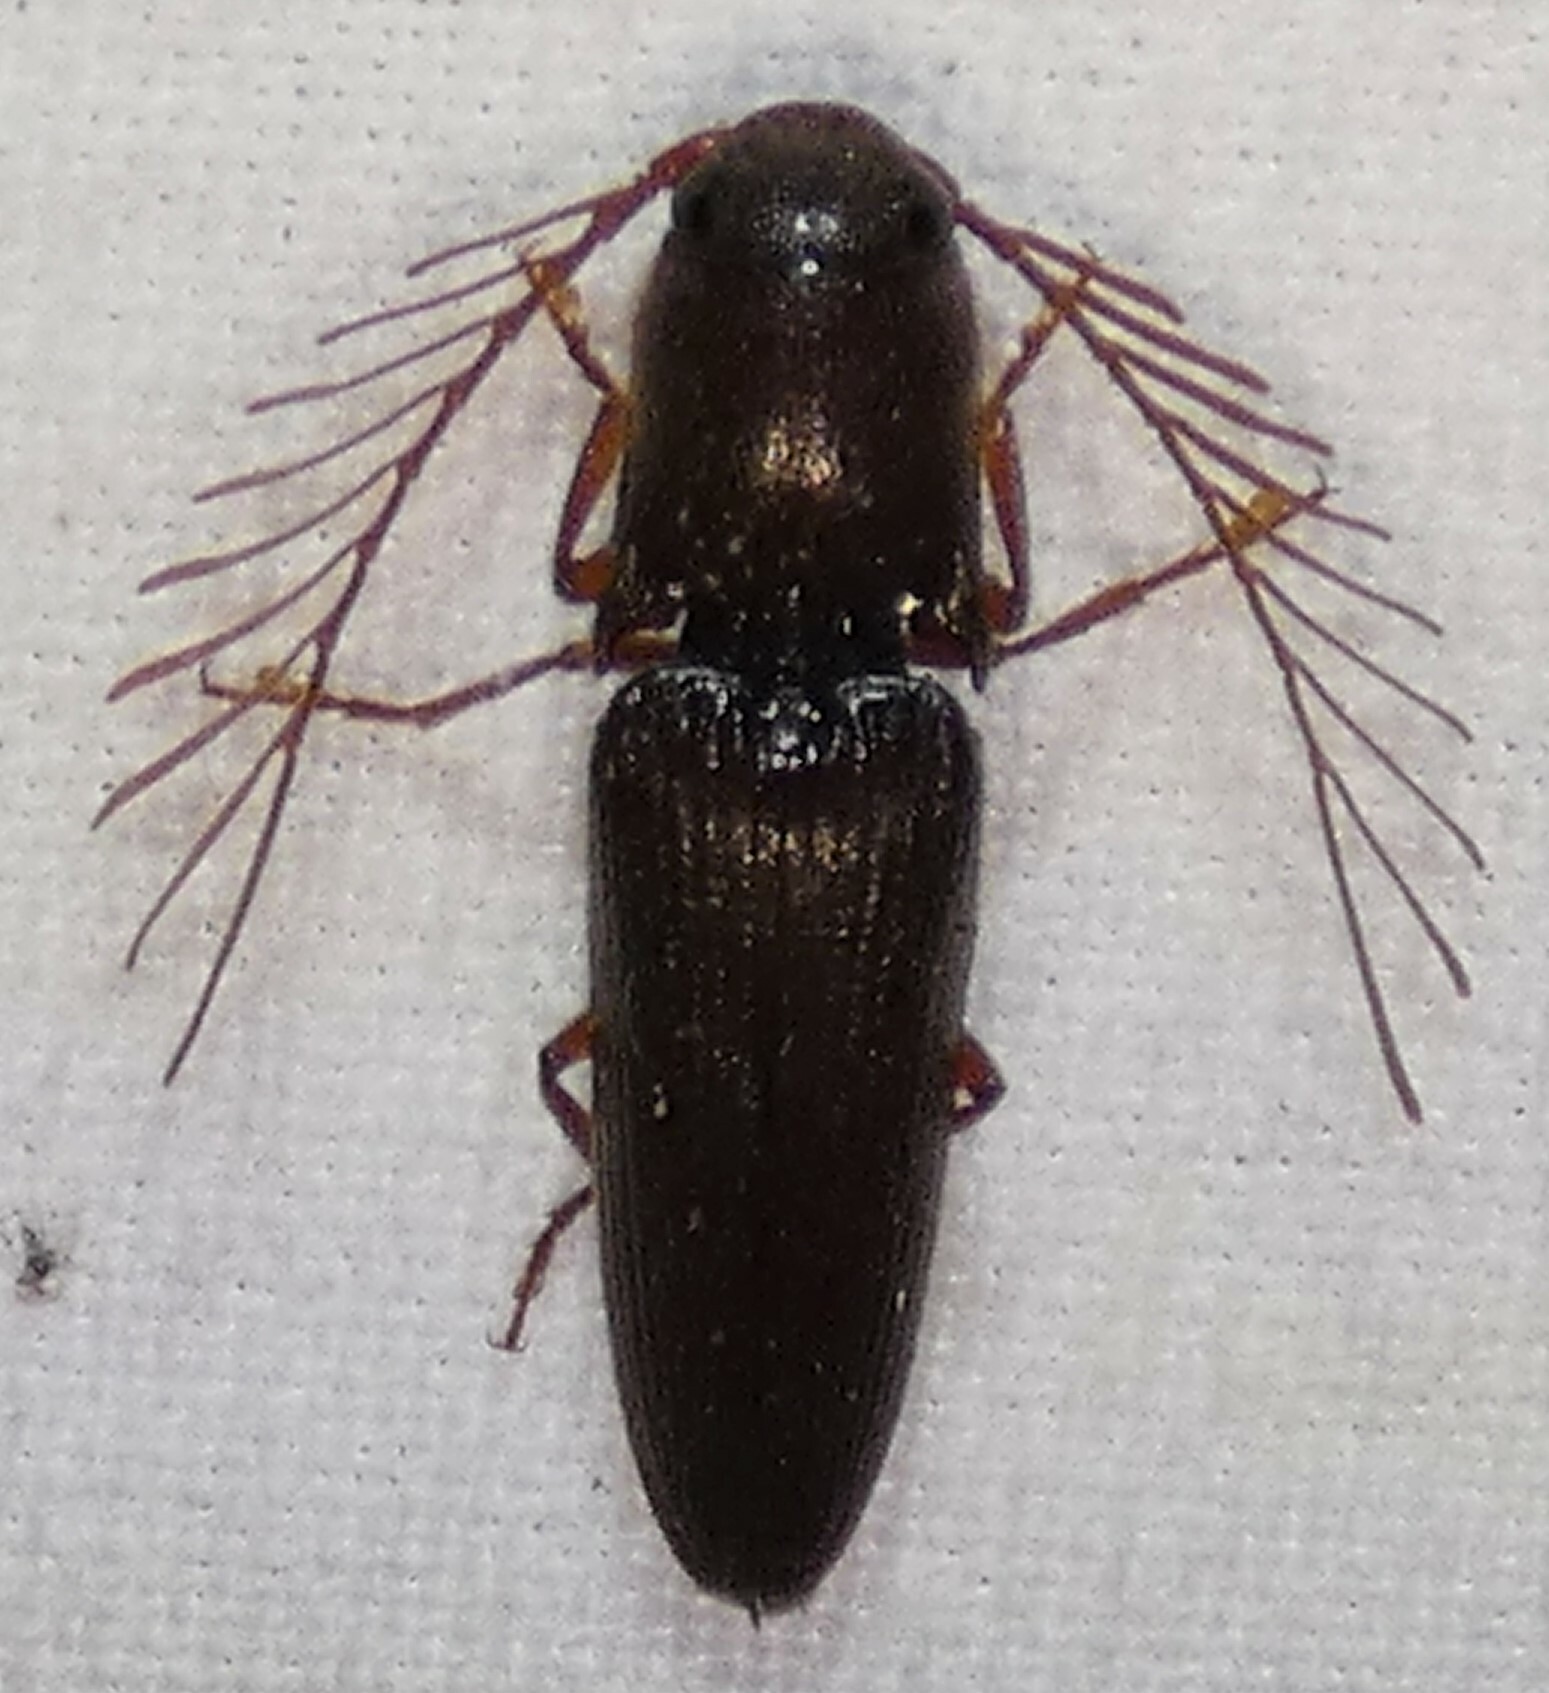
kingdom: Animalia
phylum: Arthropoda
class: Insecta
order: Coleoptera
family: Elateridae
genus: Dicrepidius
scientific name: Dicrepidius palmatus
